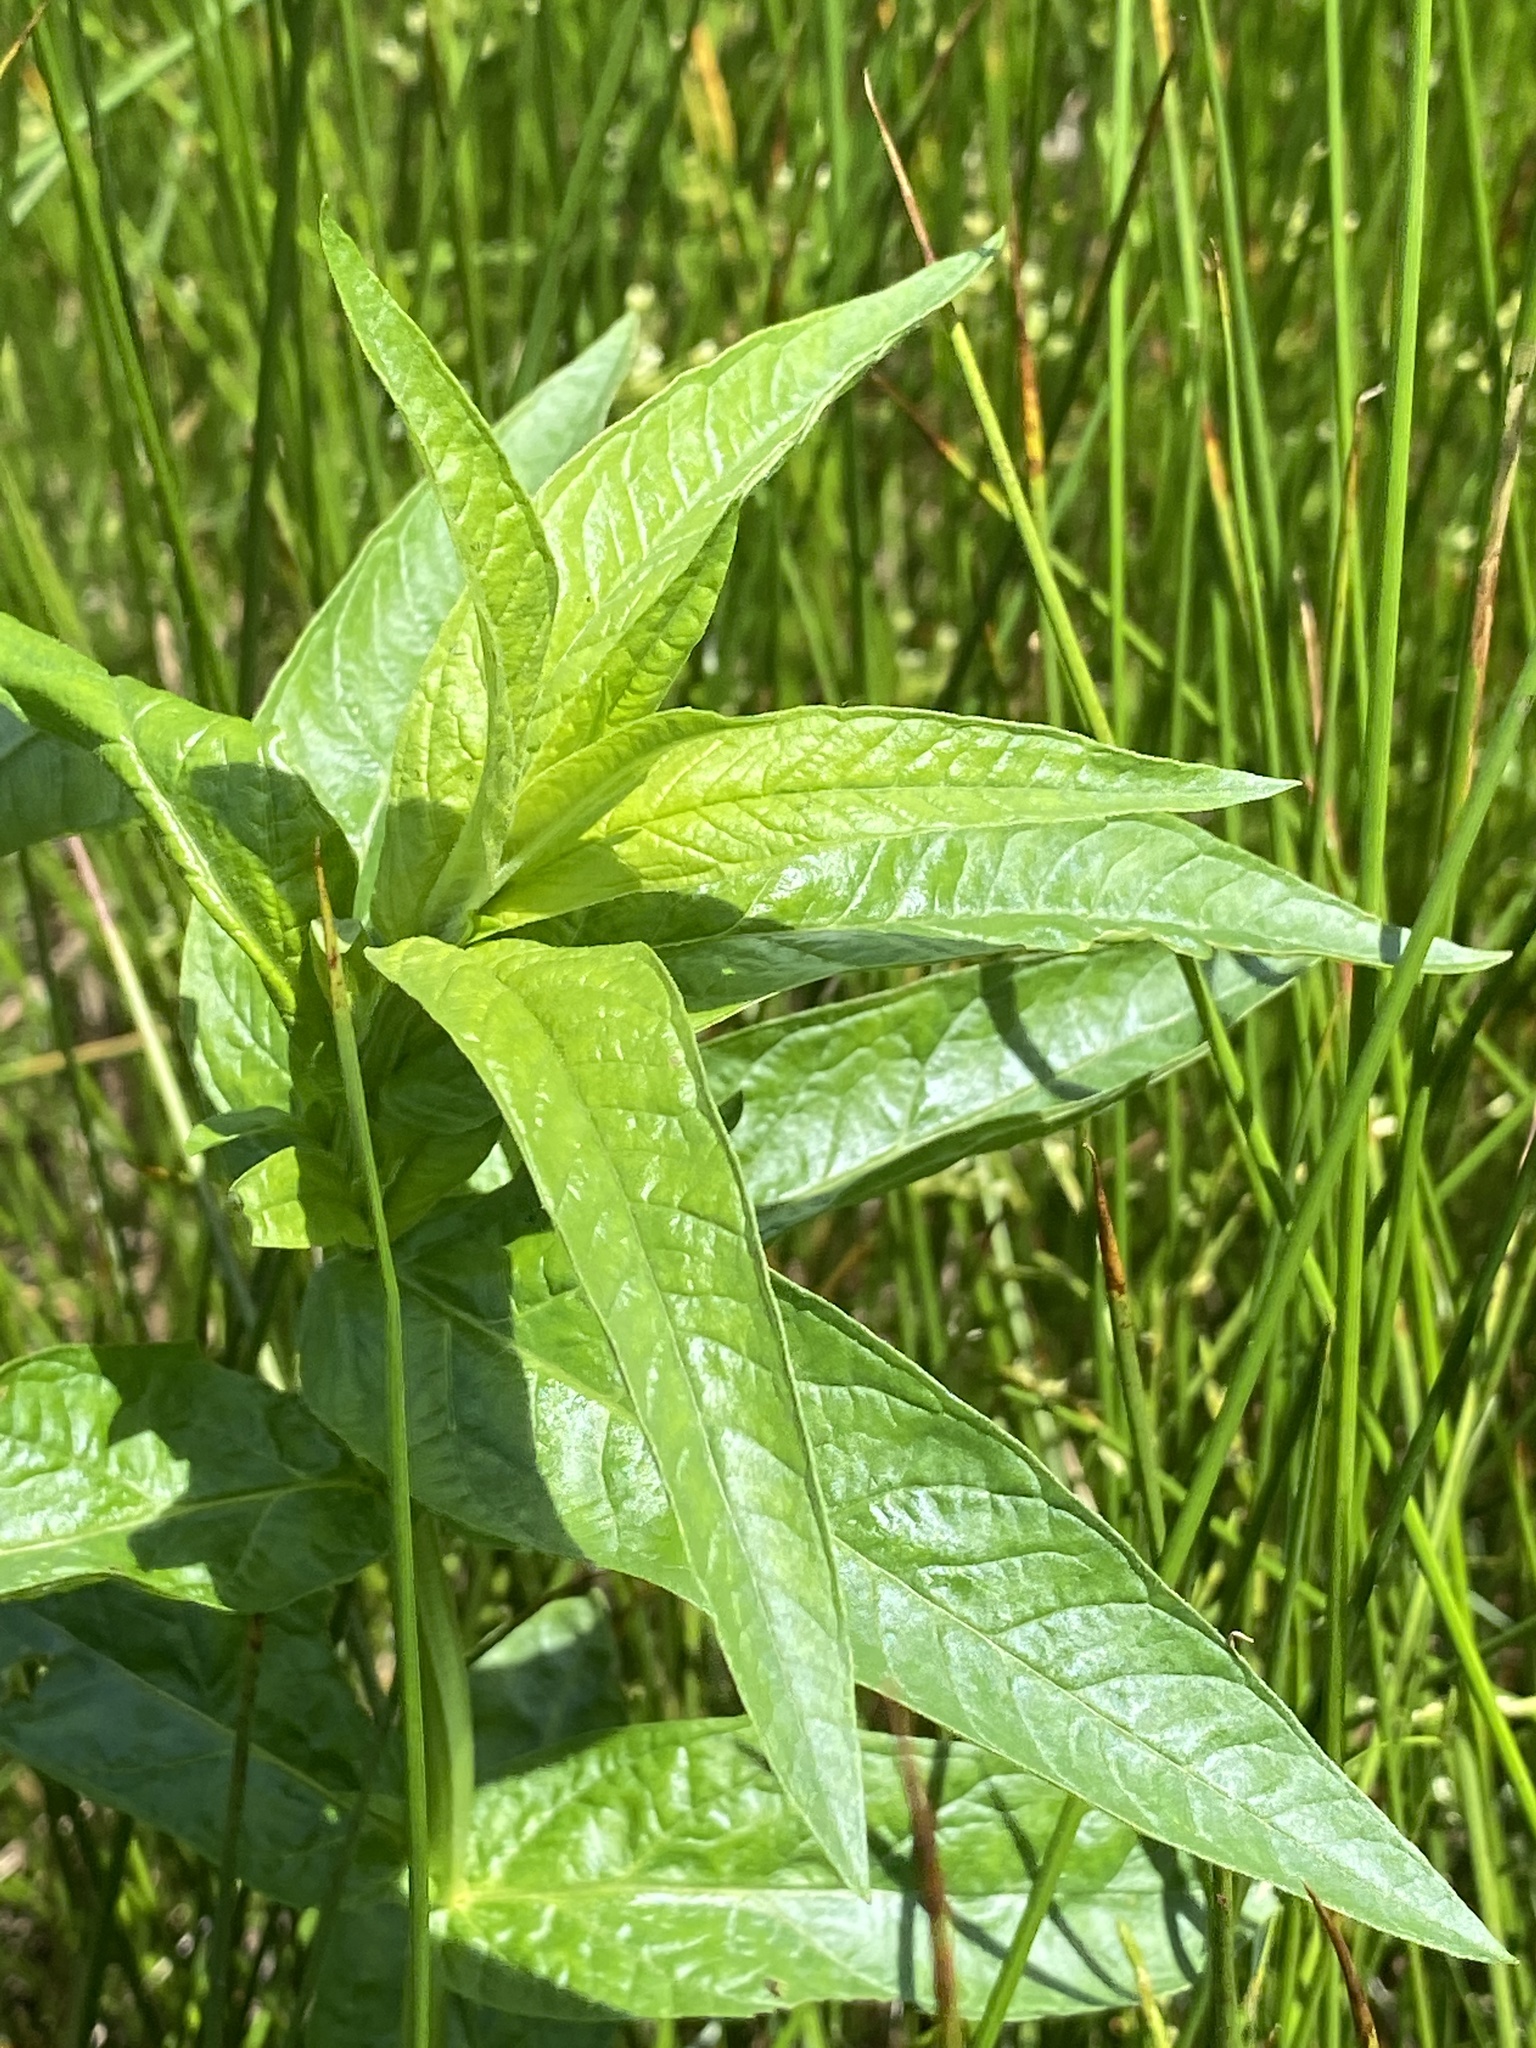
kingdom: Plantae
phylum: Tracheophyta
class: Magnoliopsida
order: Gentianales
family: Apocynaceae
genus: Asclepias
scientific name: Asclepias incarnata
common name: Swamp milkweed
